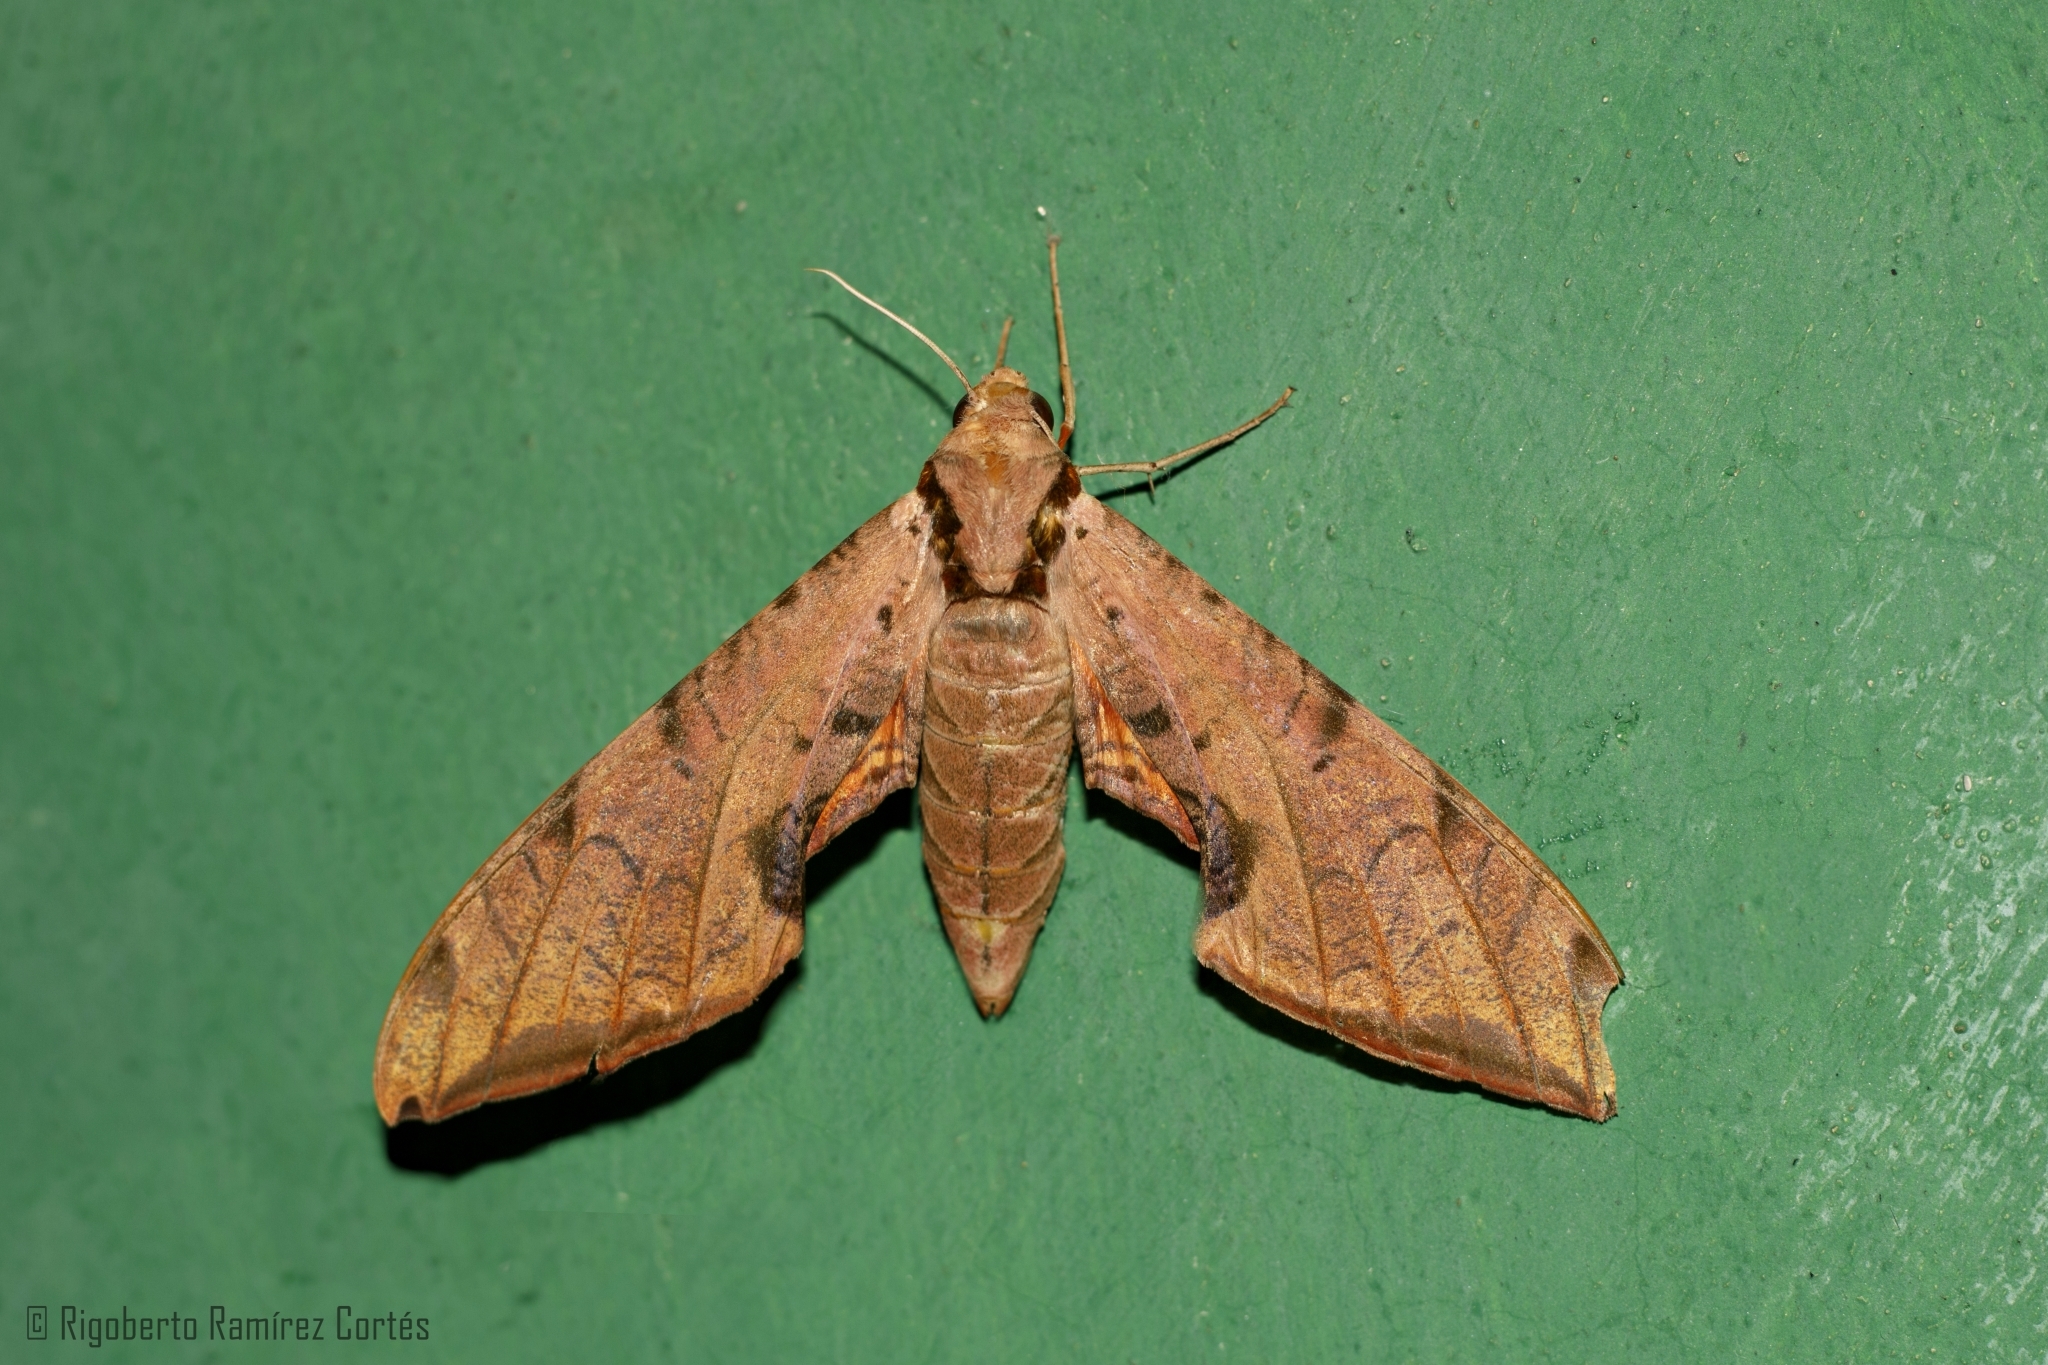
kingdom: Animalia
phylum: Arthropoda
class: Insecta
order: Lepidoptera
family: Sphingidae
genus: Protambulyx
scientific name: Protambulyx strigilis
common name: Streaked sphinx
